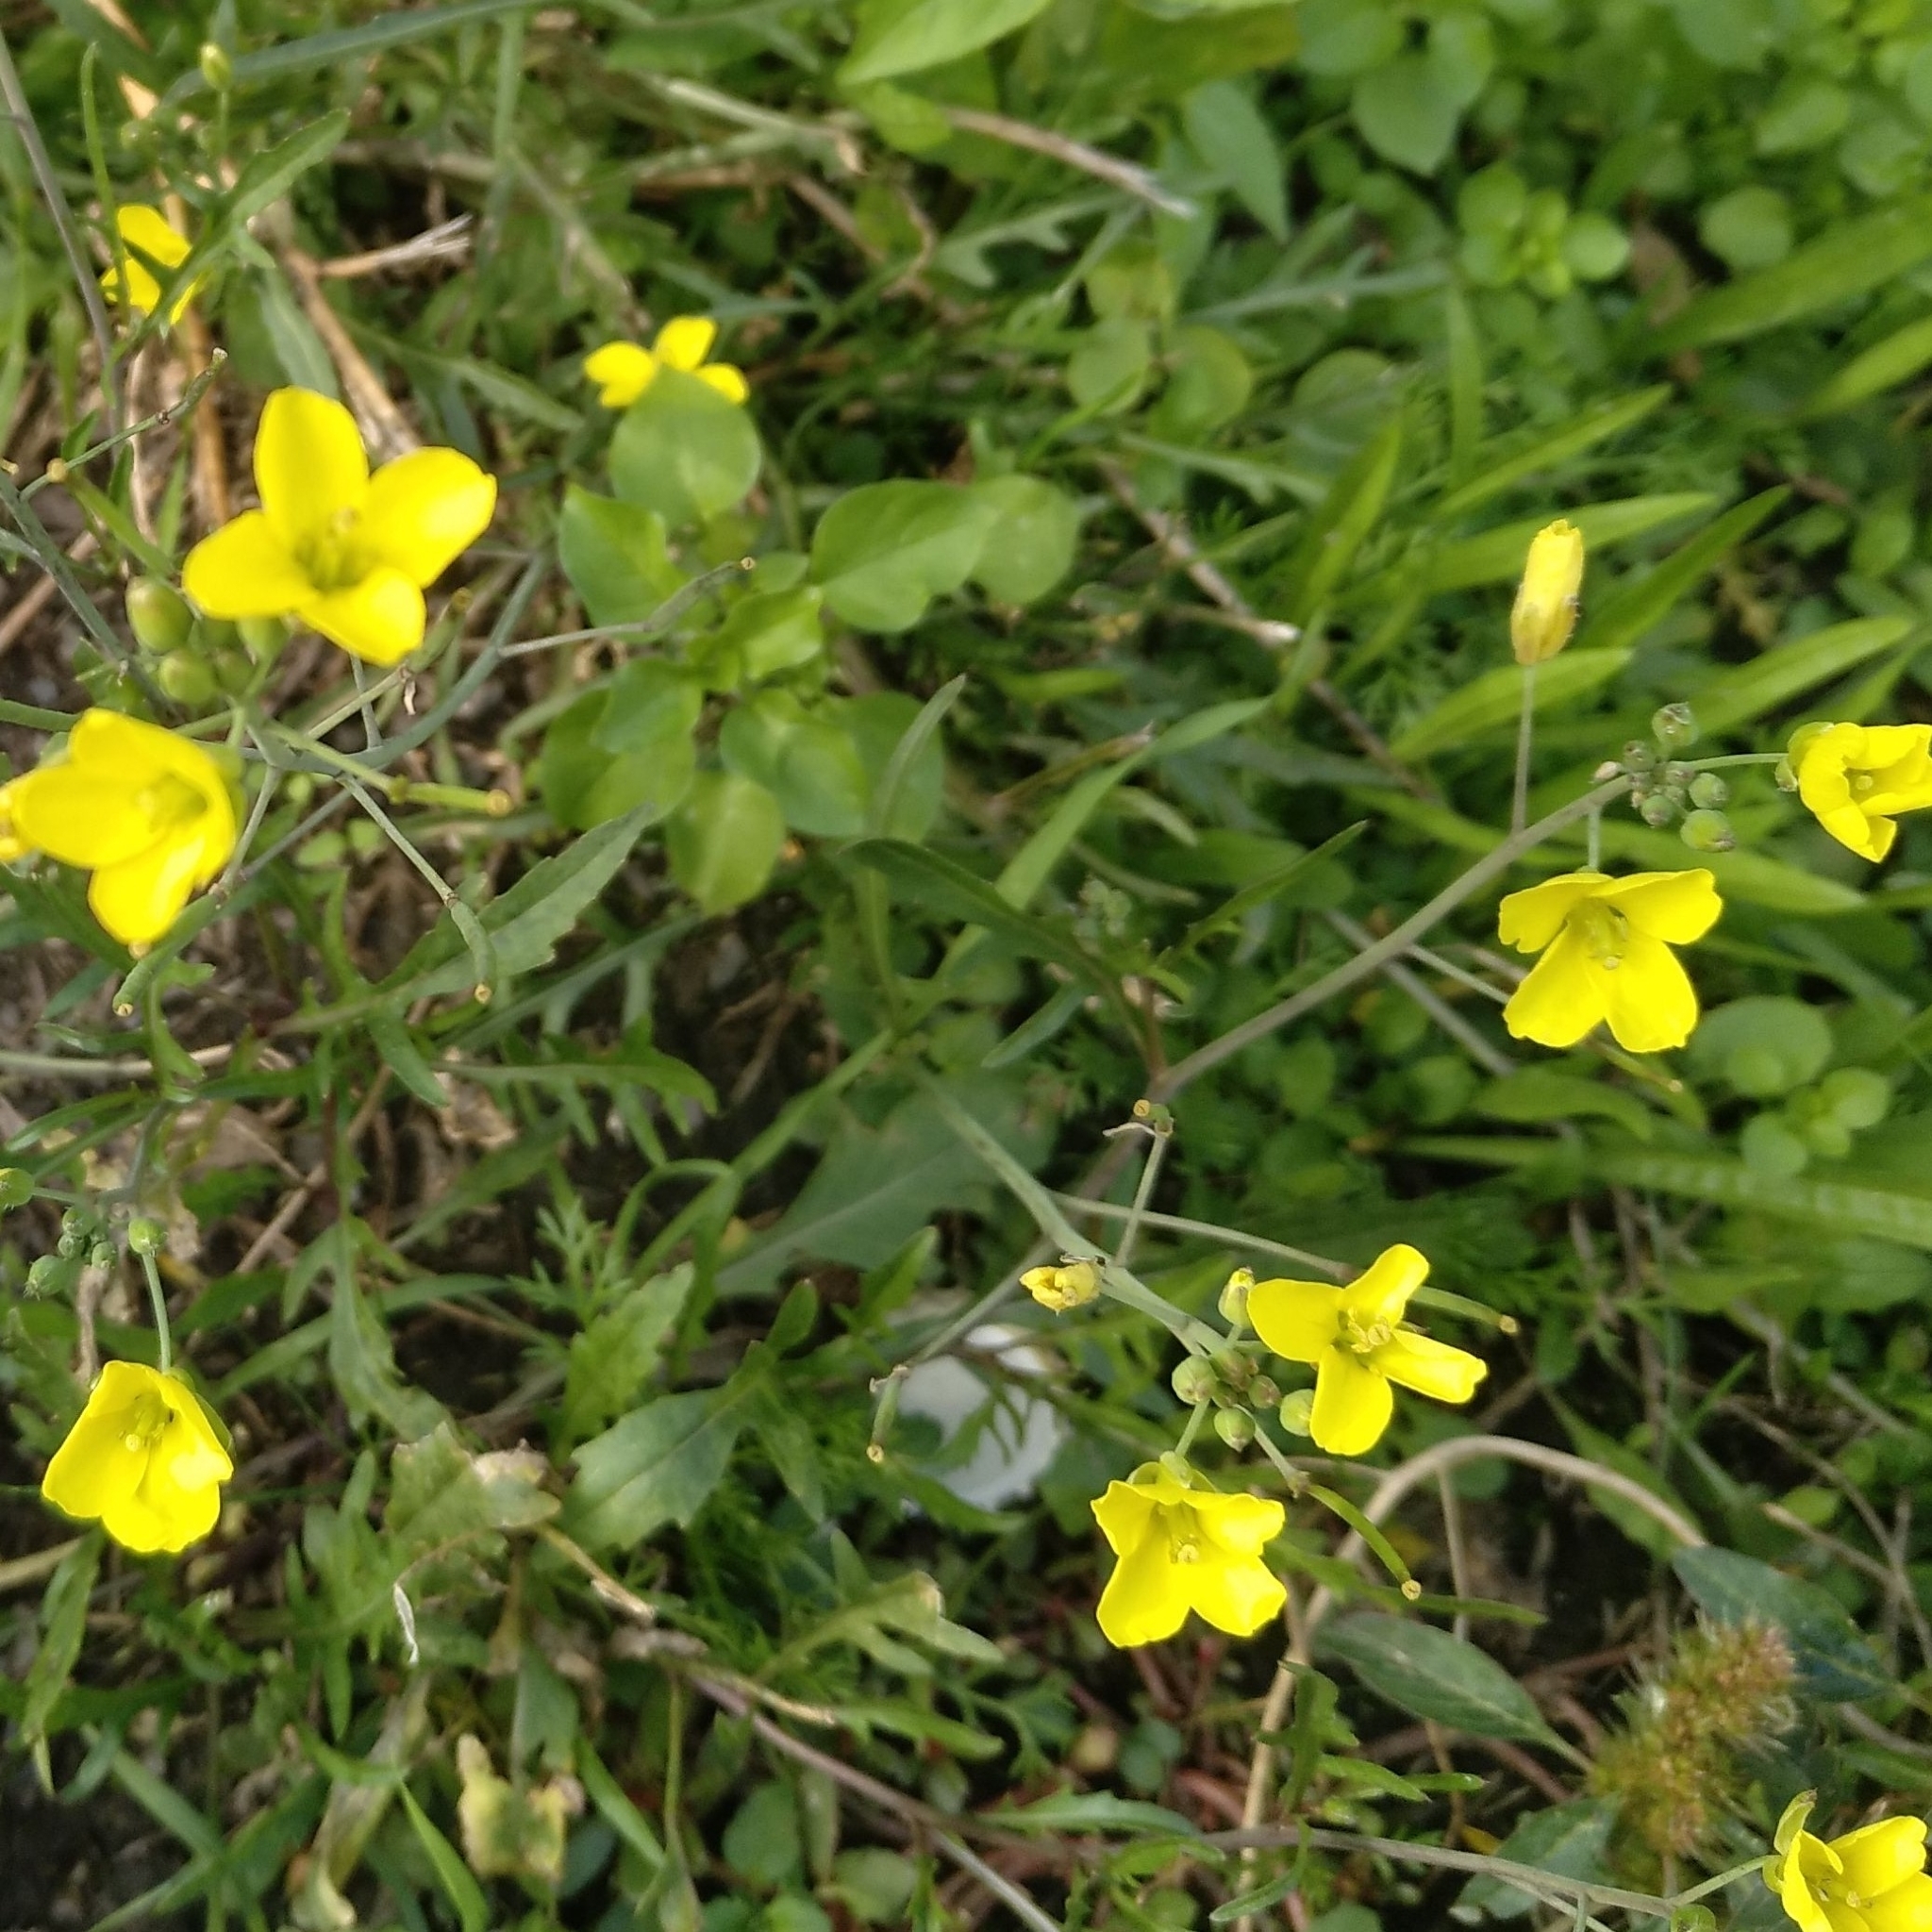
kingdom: Plantae
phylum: Tracheophyta
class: Magnoliopsida
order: Brassicales
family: Brassicaceae
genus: Diplotaxis
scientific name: Diplotaxis tenuifolia
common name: Perennial wall-rocket
